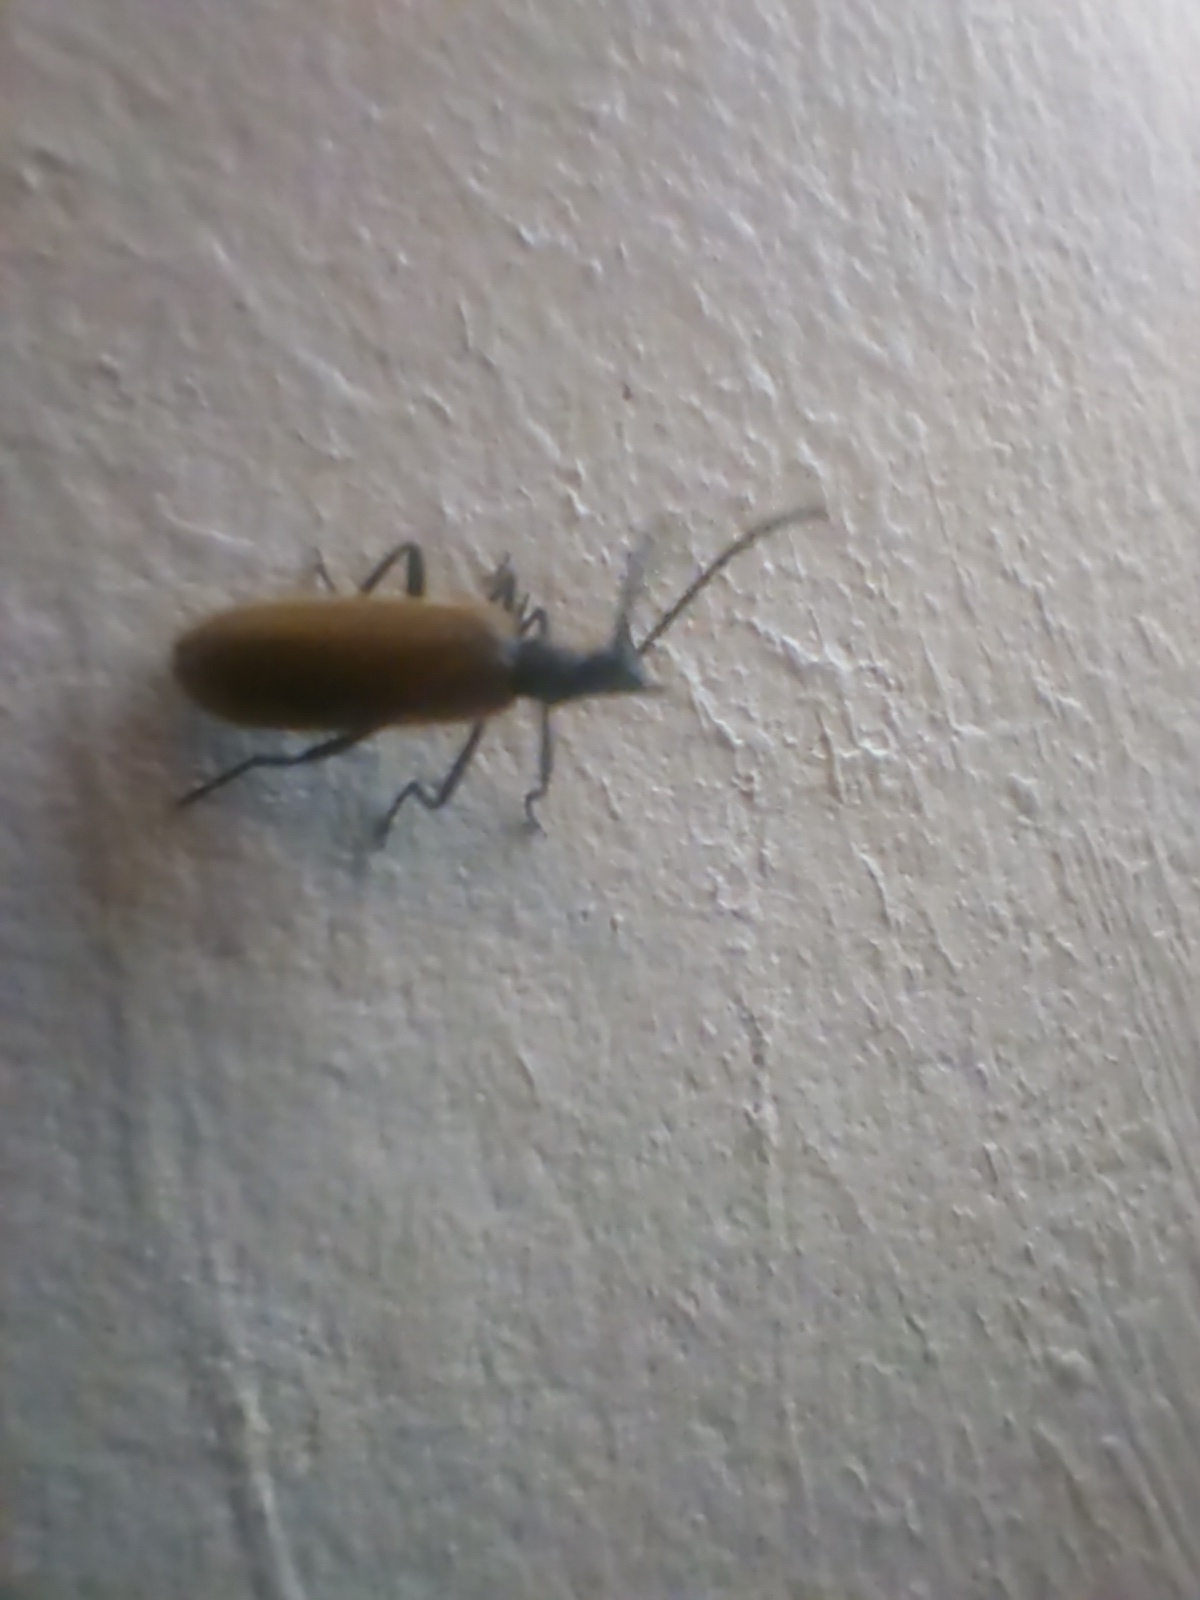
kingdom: Animalia
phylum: Arthropoda
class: Insecta
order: Coleoptera
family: Tenebrionidae
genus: Lagria
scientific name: Lagria hirta
